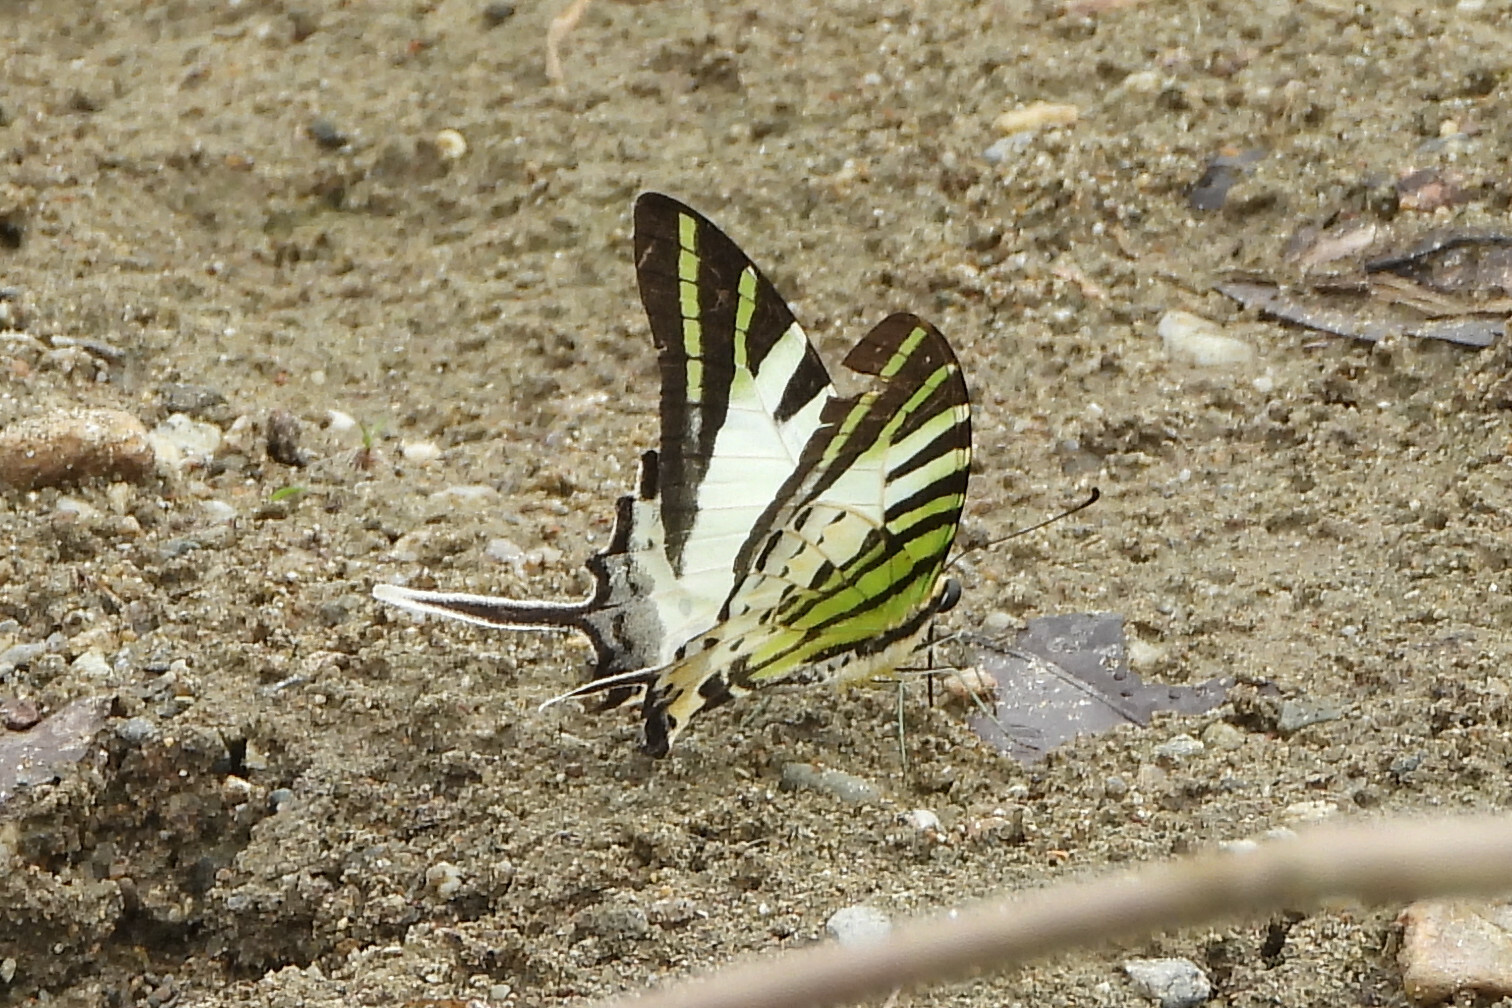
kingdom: Animalia
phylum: Arthropoda
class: Insecta
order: Lepidoptera
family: Papilionidae
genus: Graphium
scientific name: Graphium antiphates
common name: Fivebar swordtail
